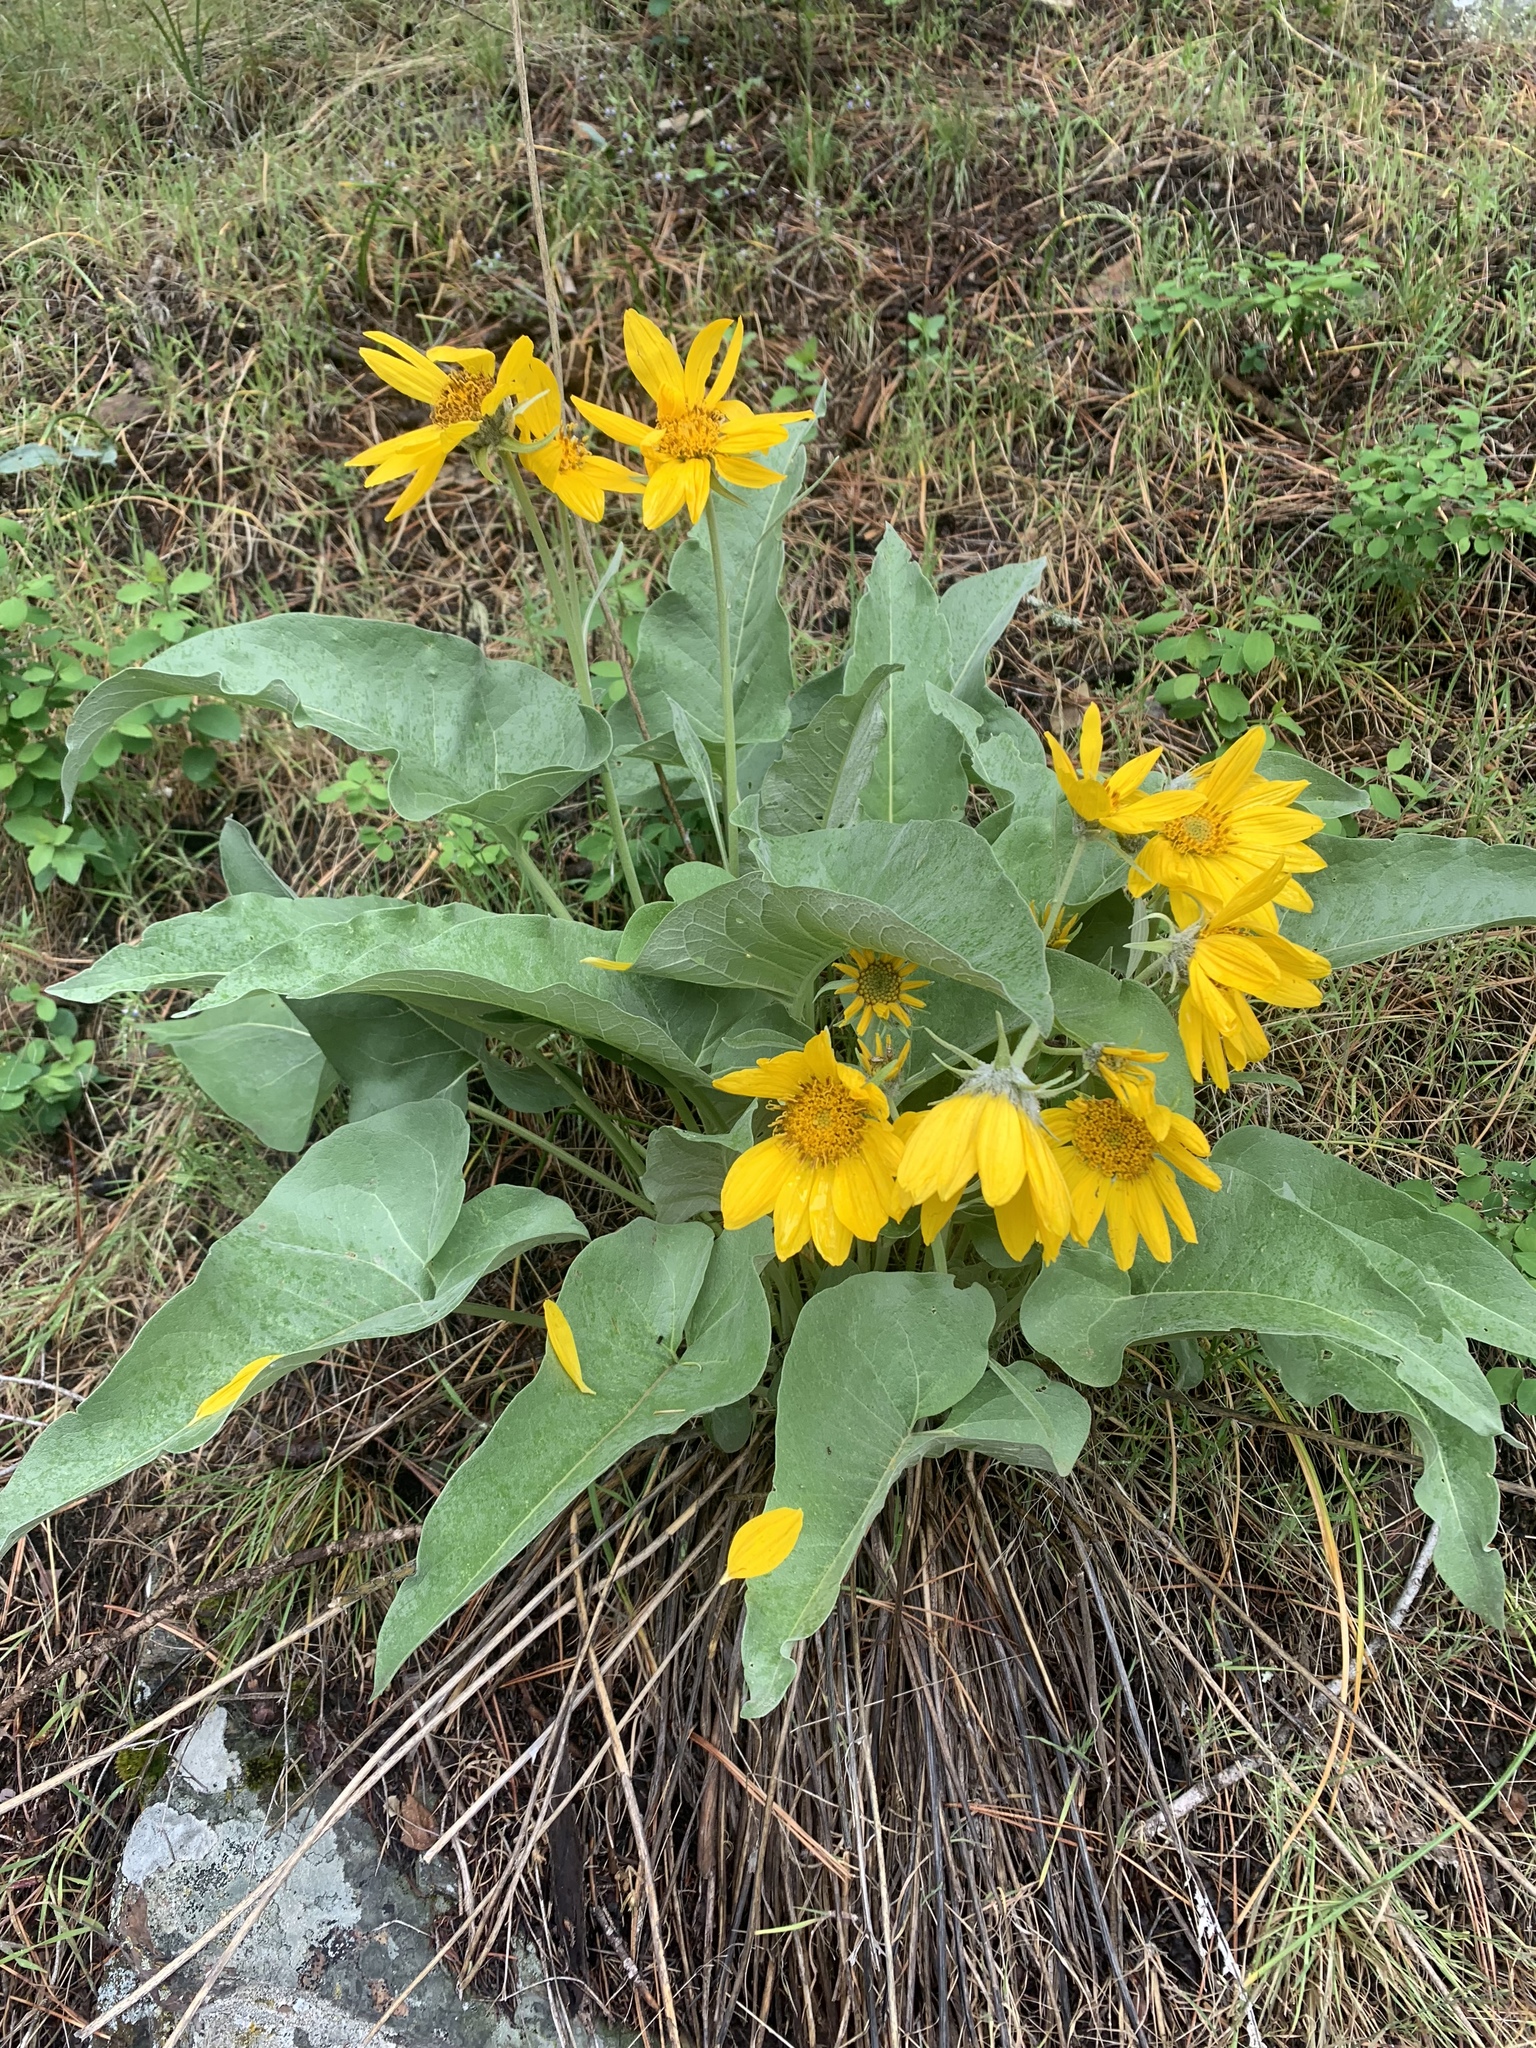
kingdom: Plantae
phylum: Tracheophyta
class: Magnoliopsida
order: Asterales
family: Asteraceae
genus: Wyethia
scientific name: Wyethia sagittata
